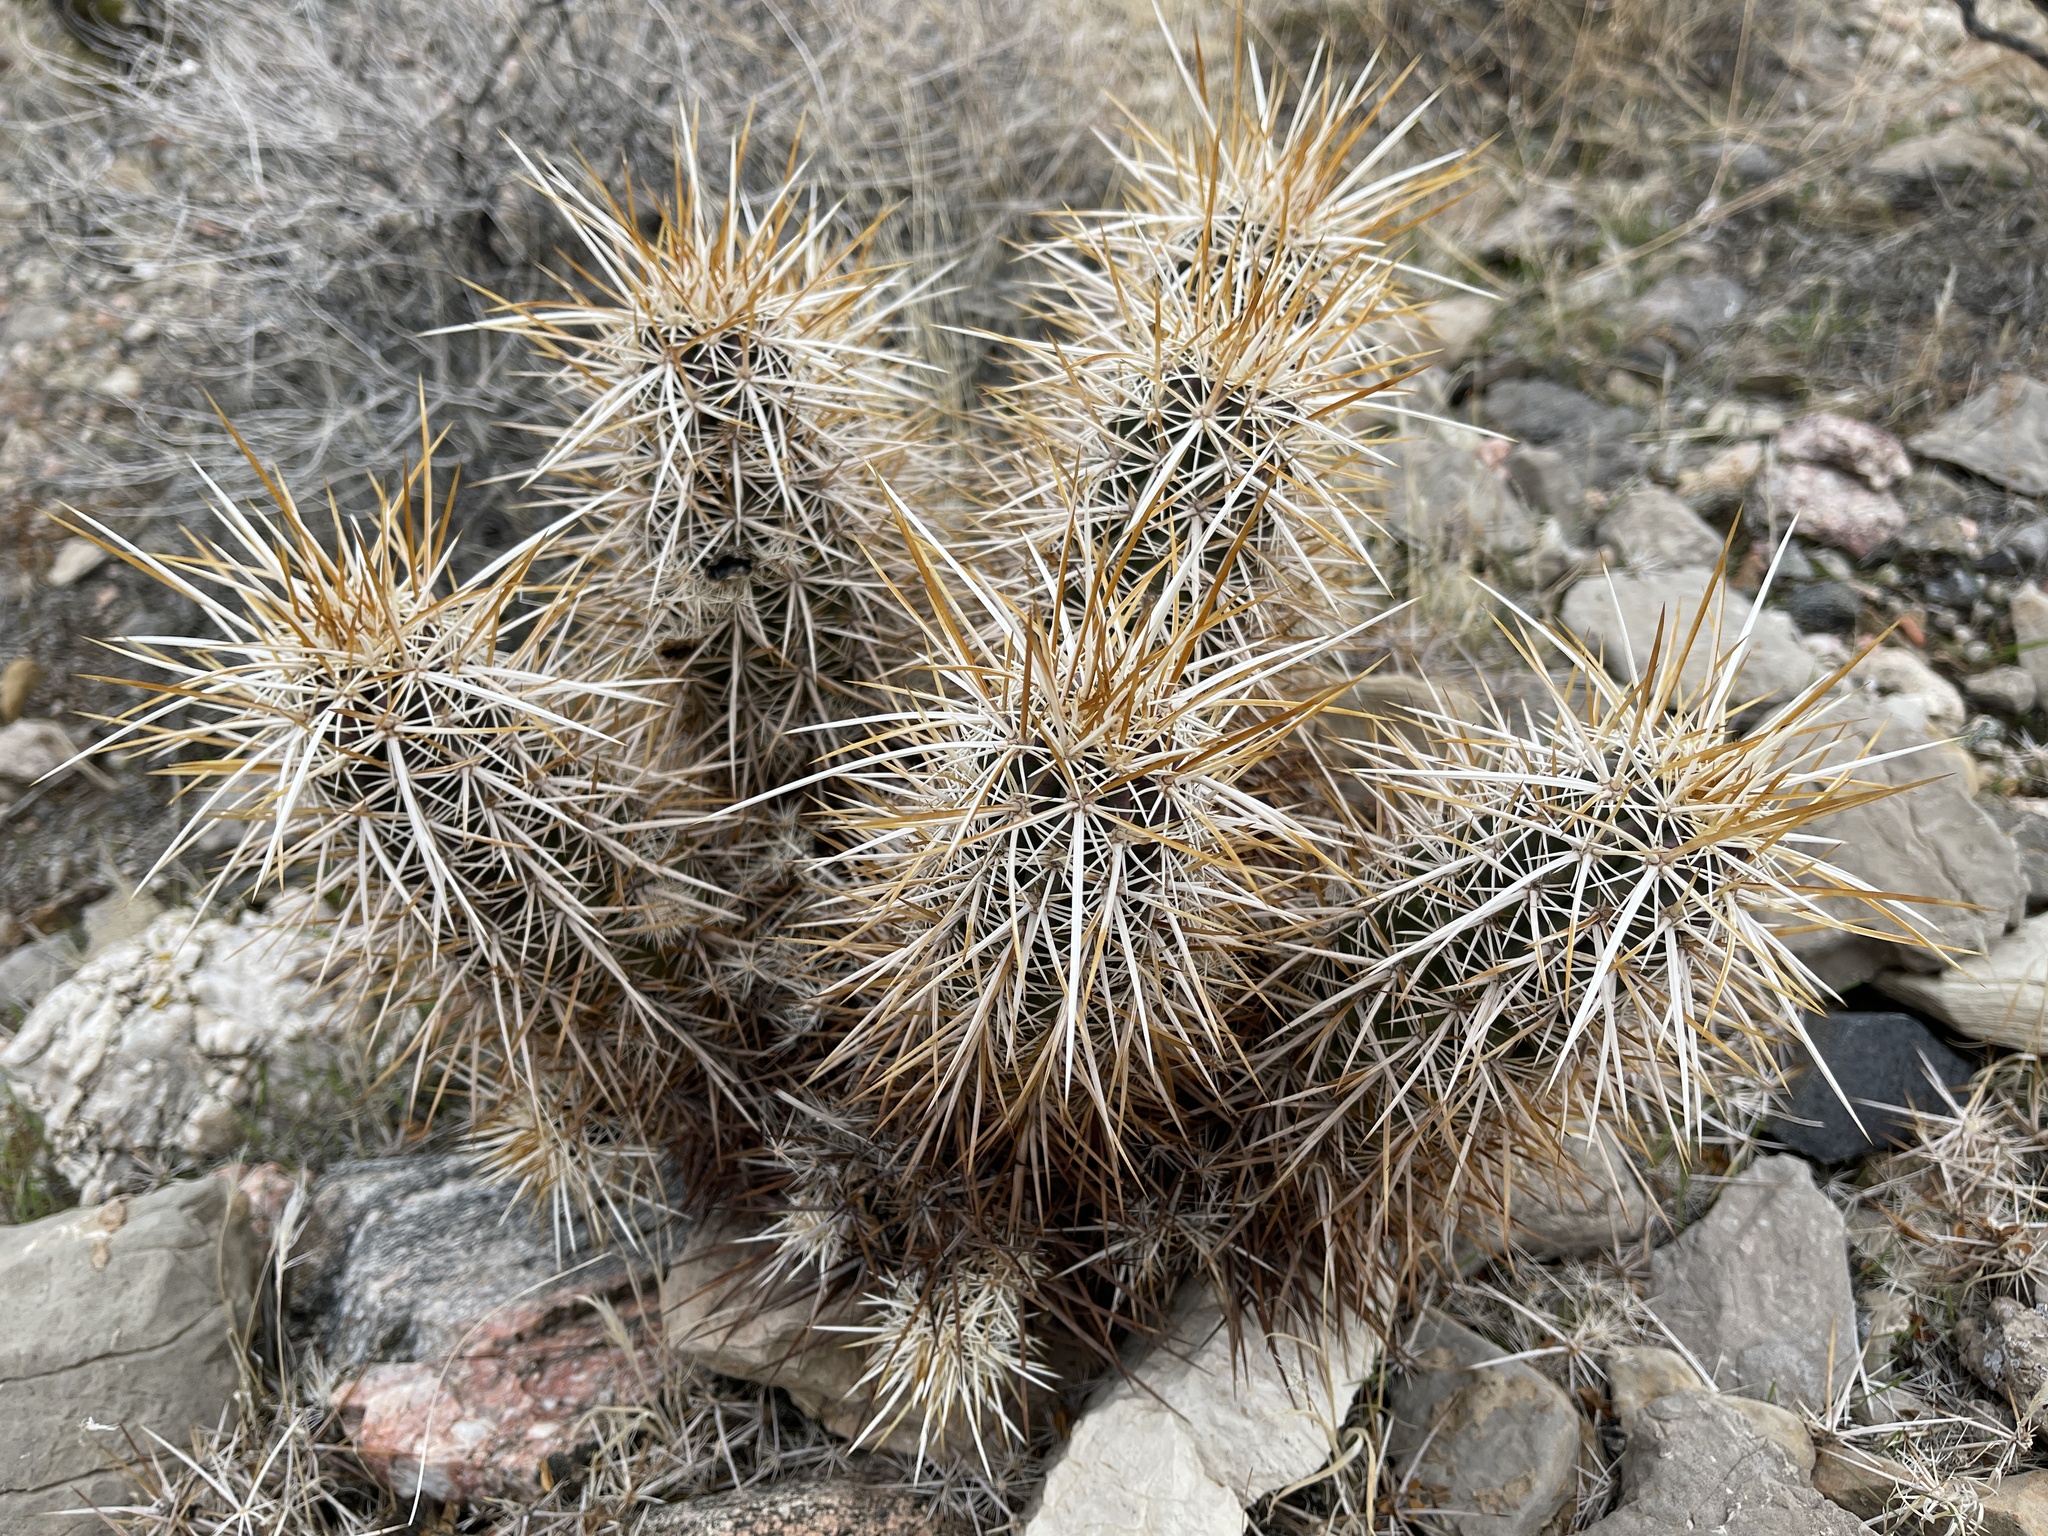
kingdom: Plantae
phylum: Tracheophyta
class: Magnoliopsida
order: Caryophyllales
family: Cactaceae
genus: Echinocereus
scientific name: Echinocereus engelmannii
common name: Engelmann's hedgehog cactus
